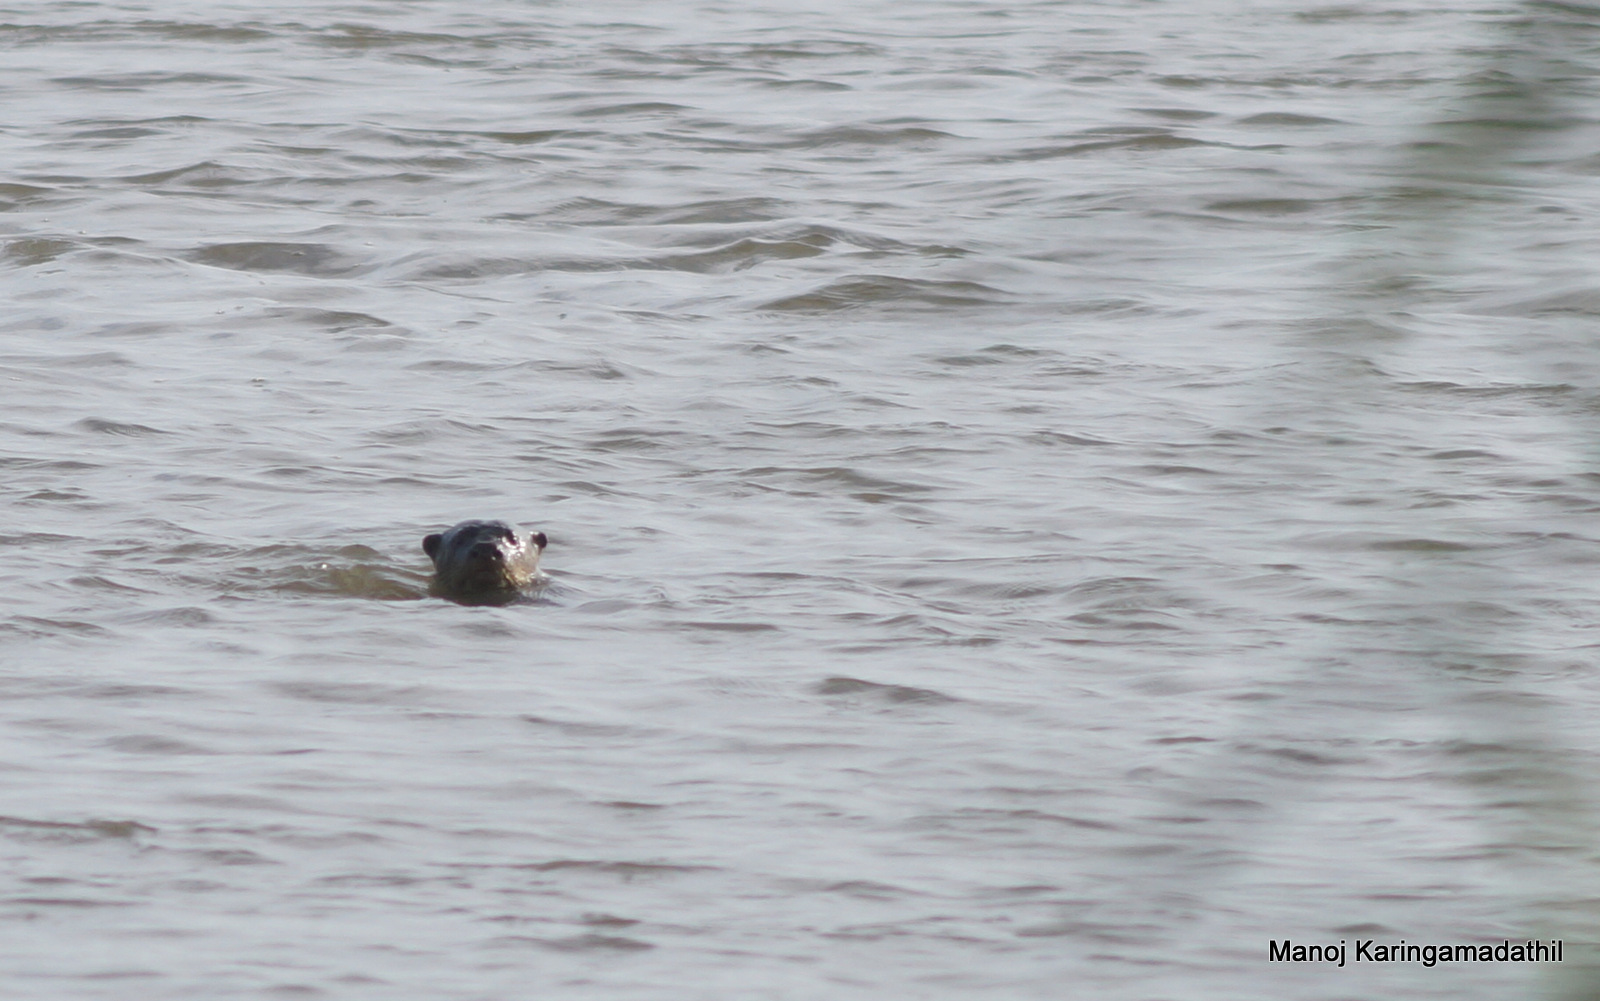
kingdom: Animalia
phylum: Chordata
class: Mammalia
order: Carnivora
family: Mustelidae
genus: Lutrogale
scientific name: Lutrogale perspicillata
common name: Smooth-coated otter
